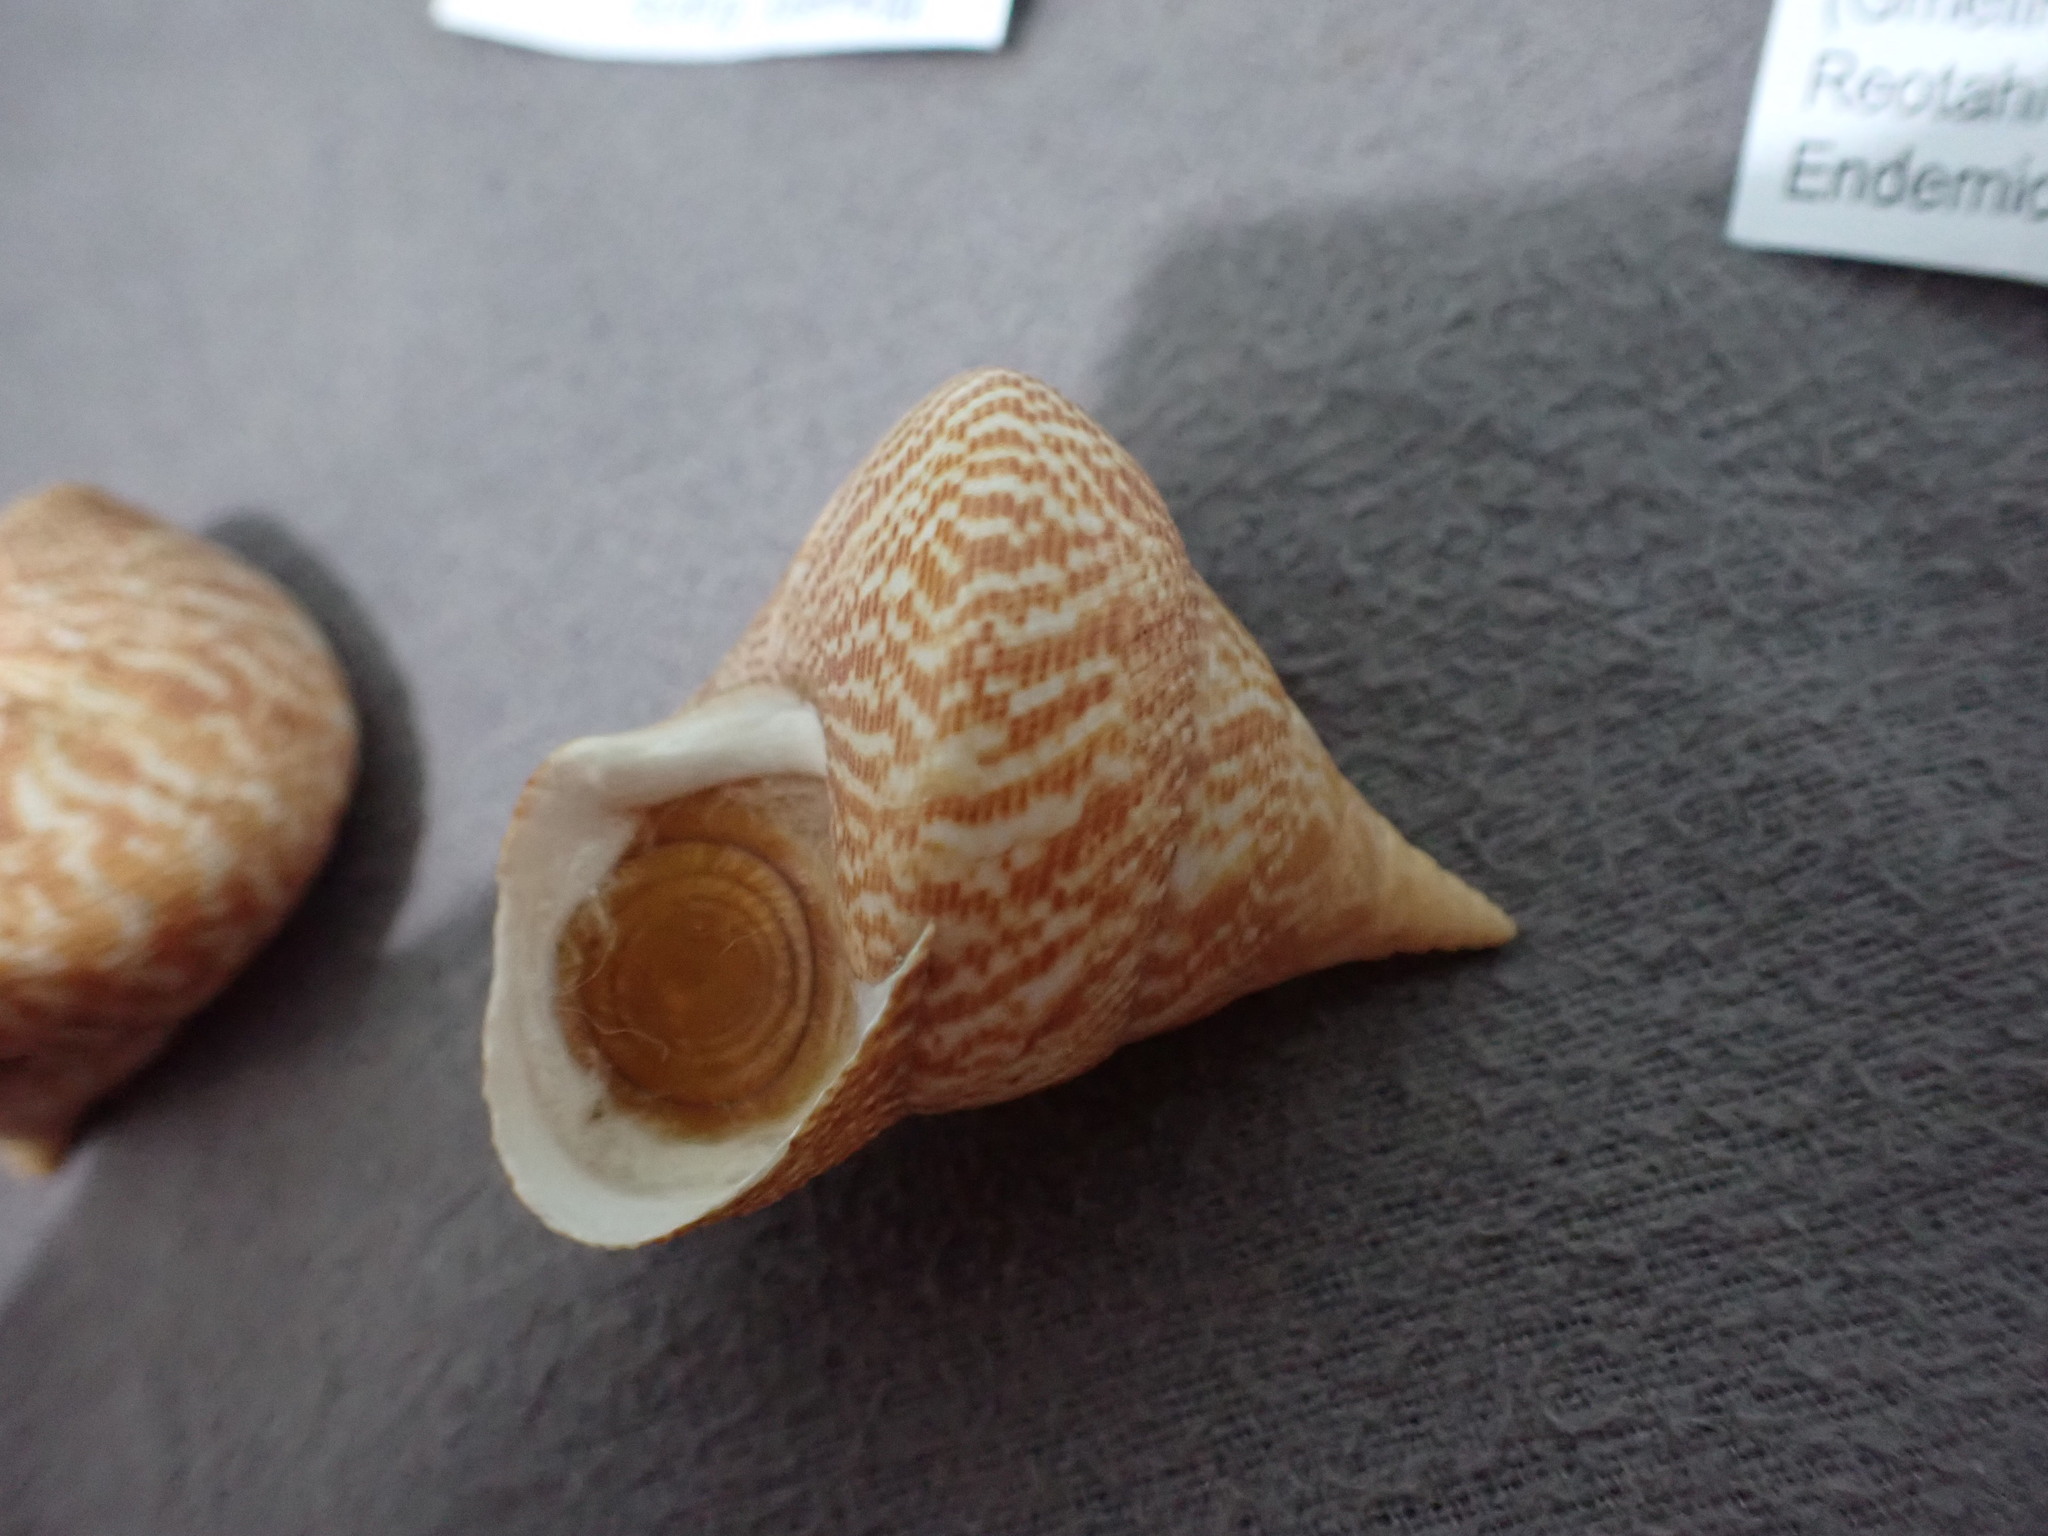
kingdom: Animalia
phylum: Mollusca
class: Gastropoda
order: Trochida
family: Calliostomatidae
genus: Maurea
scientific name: Maurea tigris
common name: Tiger maurea
